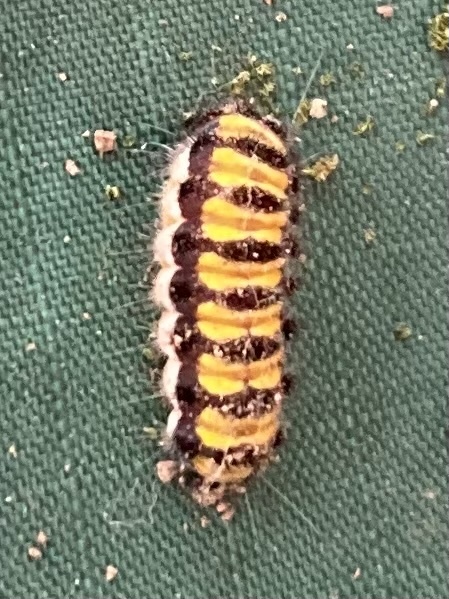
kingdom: Animalia
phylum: Arthropoda
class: Insecta
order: Lepidoptera
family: Zygaenidae
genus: Harrisina
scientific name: Harrisina americana
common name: Grapeleaf skeletonizer moth
